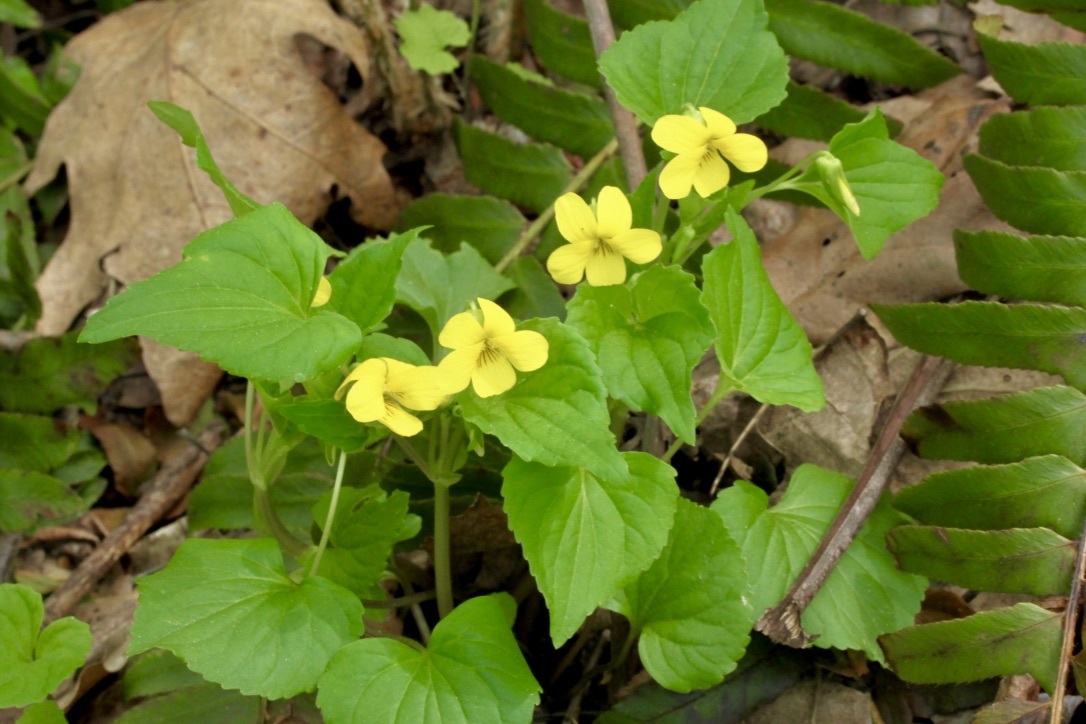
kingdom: Plantae
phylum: Tracheophyta
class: Magnoliopsida
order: Malpighiales
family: Violaceae
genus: Viola
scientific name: Viola eriocarpa
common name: Smooth yellow violet
